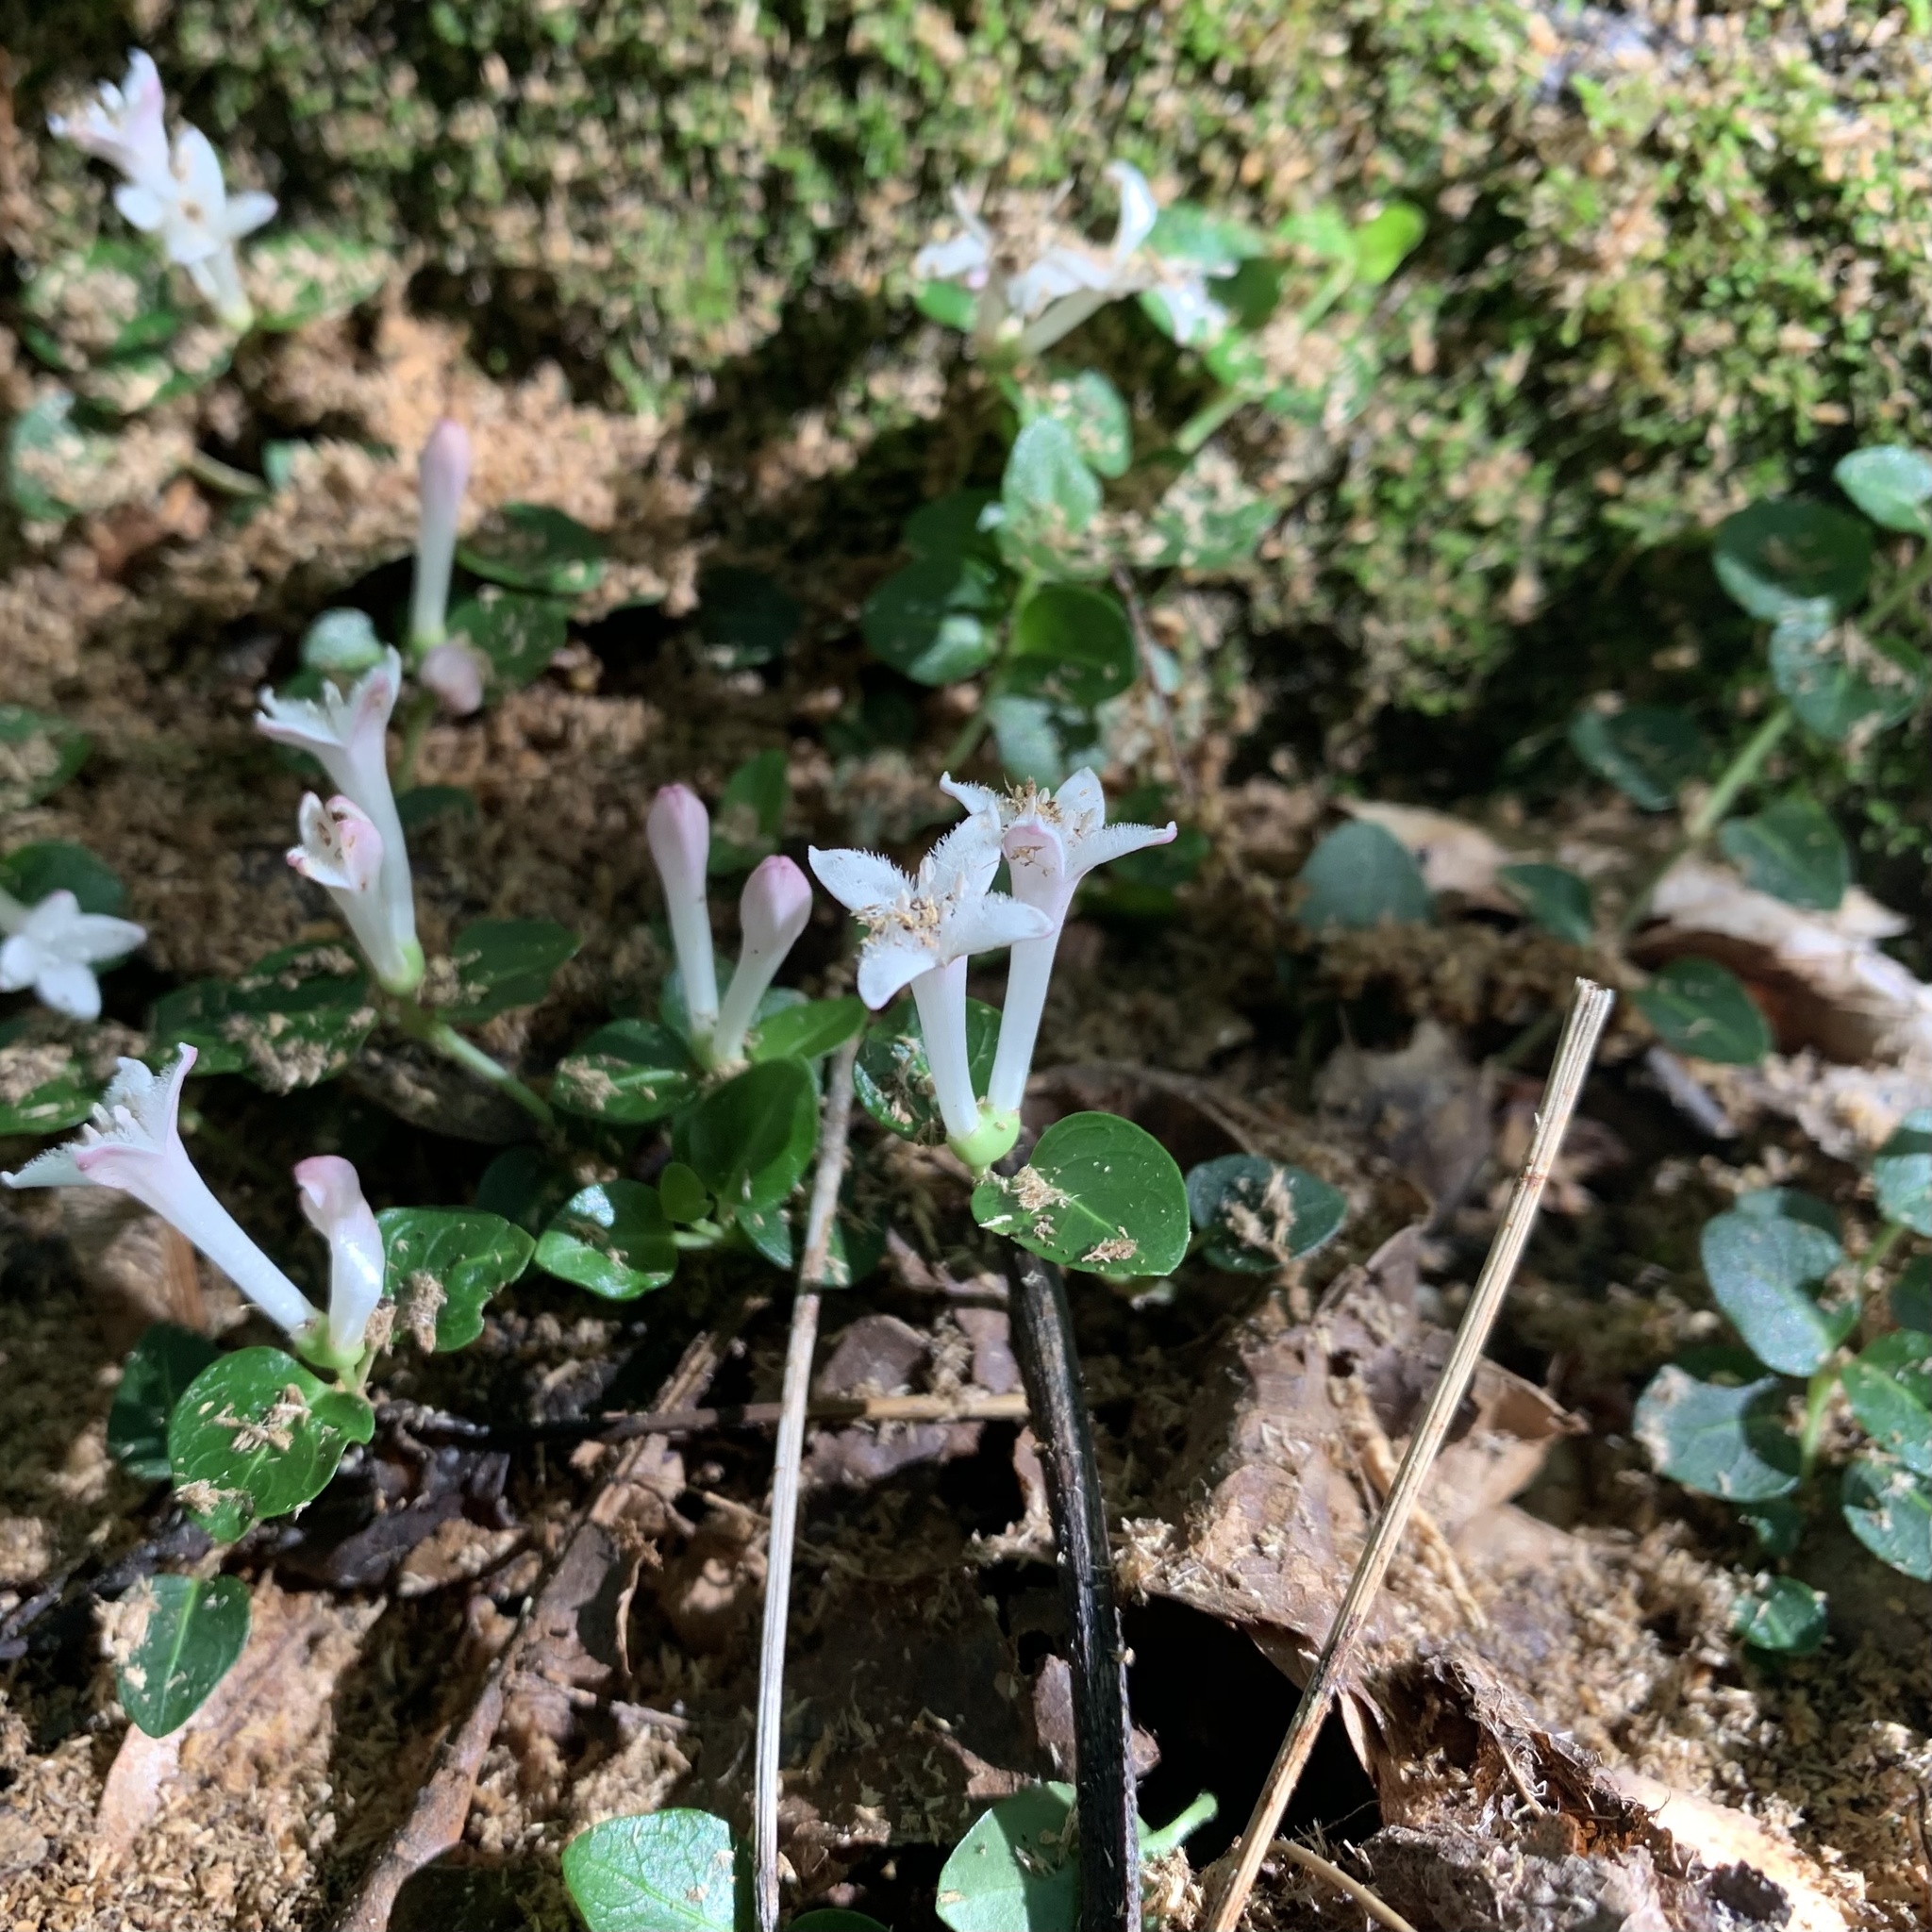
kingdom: Plantae
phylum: Tracheophyta
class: Magnoliopsida
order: Gentianales
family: Rubiaceae
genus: Mitchella
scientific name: Mitchella repens
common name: Partridge-berry
